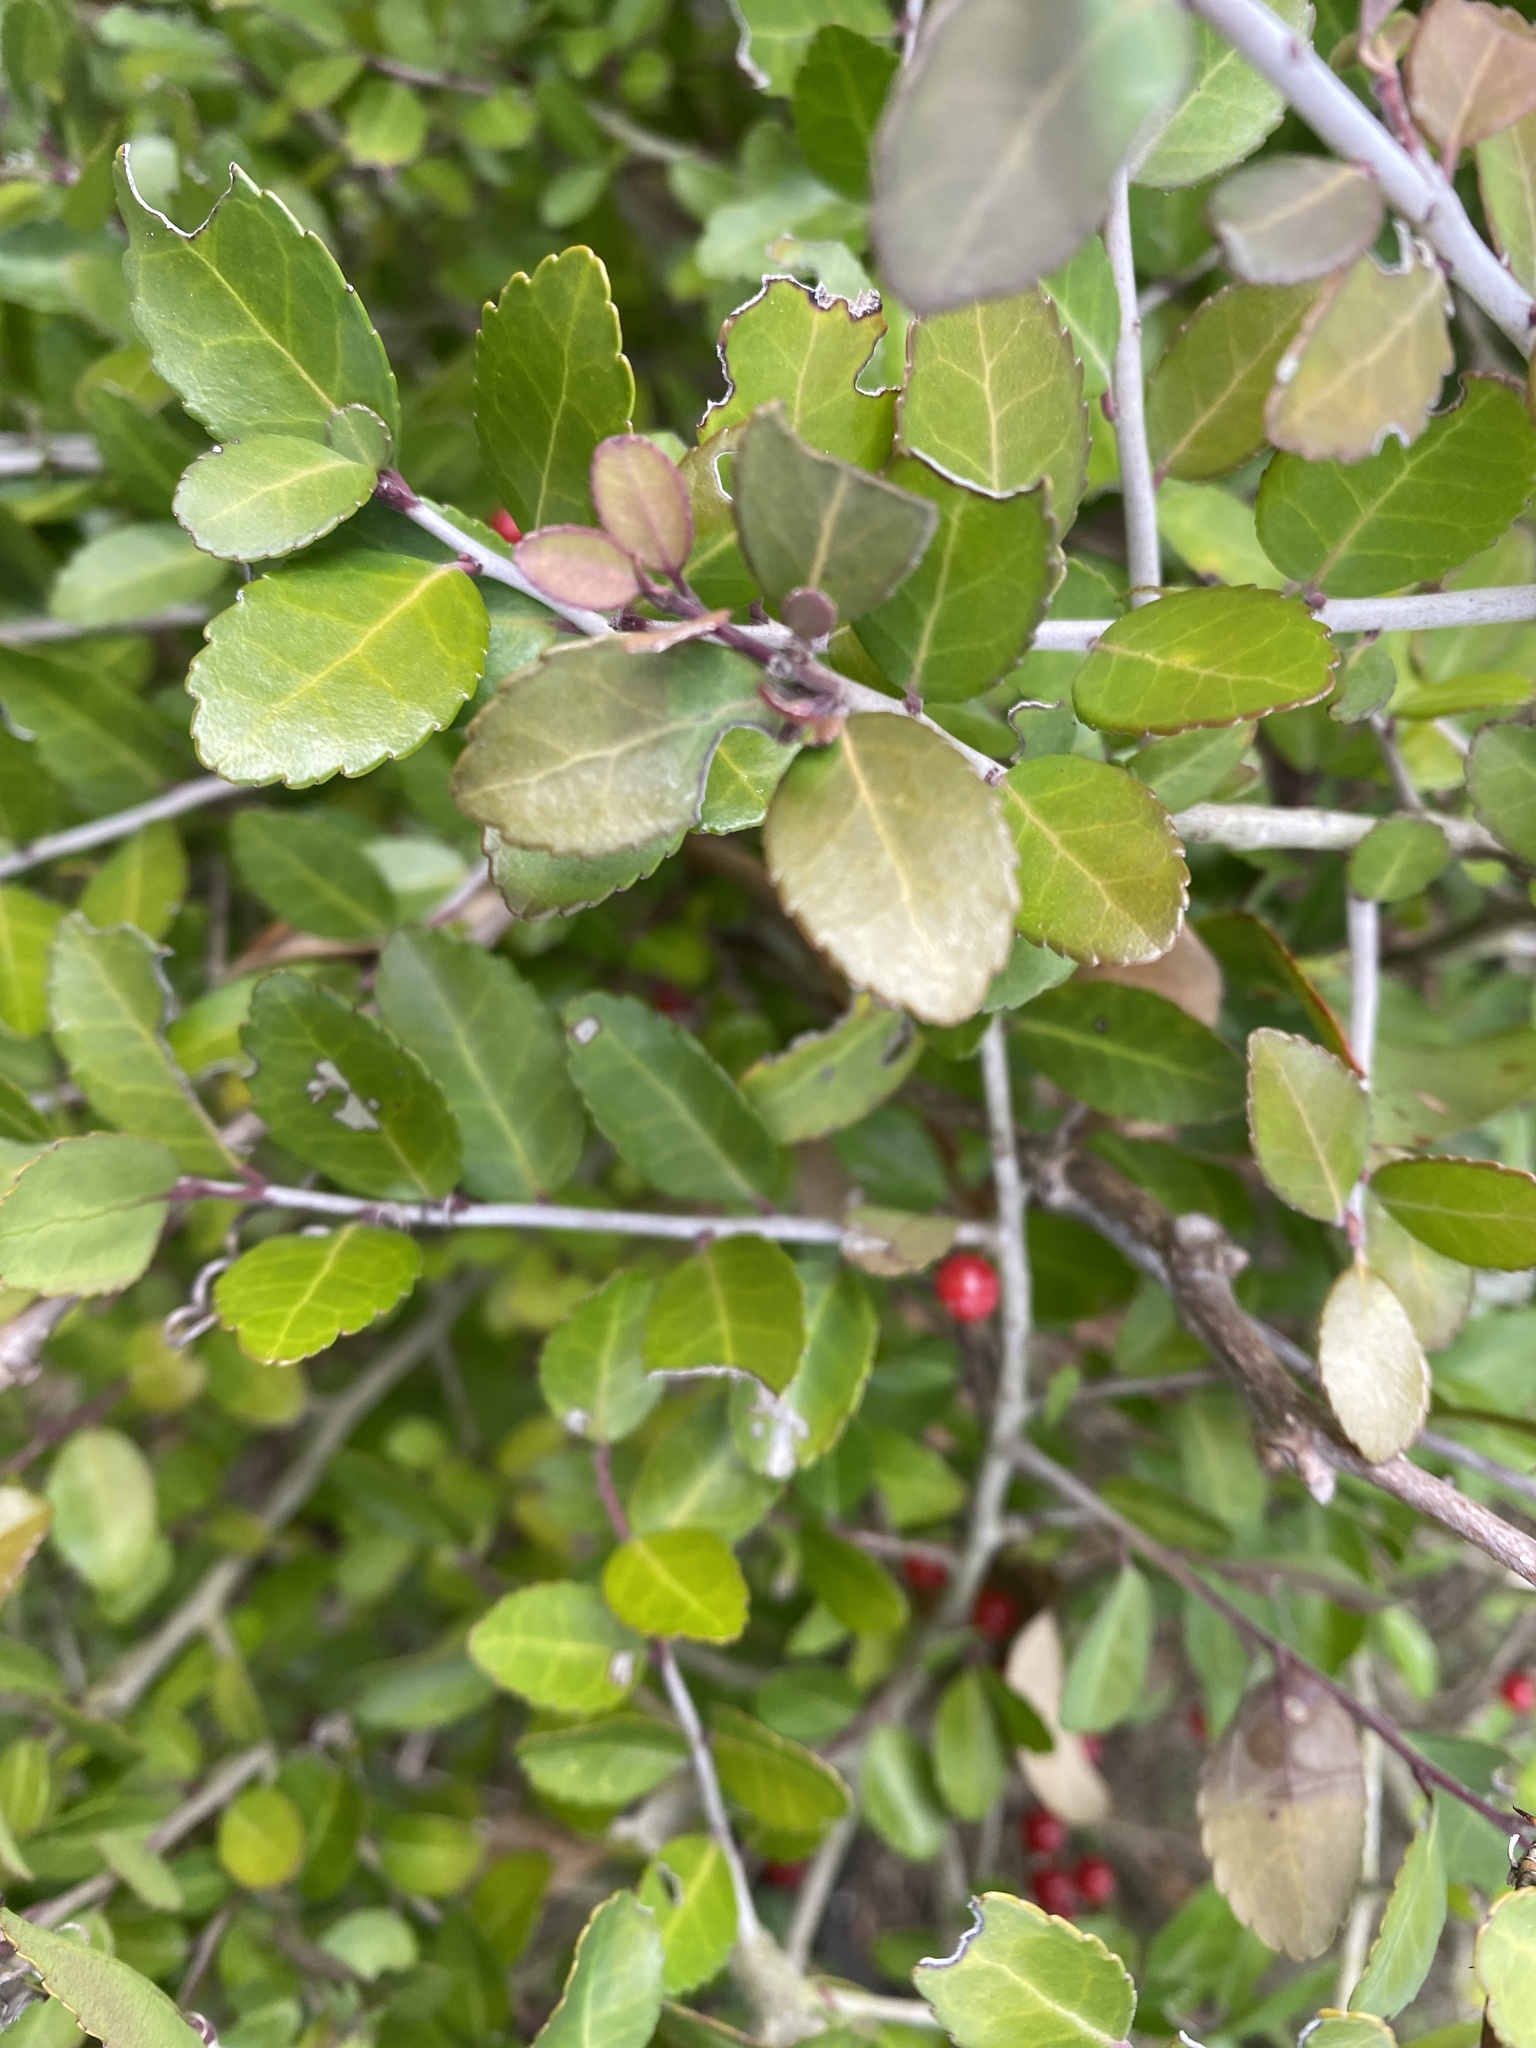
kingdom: Plantae
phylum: Tracheophyta
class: Magnoliopsida
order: Aquifoliales
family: Aquifoliaceae
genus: Ilex
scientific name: Ilex vomitoria
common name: Yaupon holly
